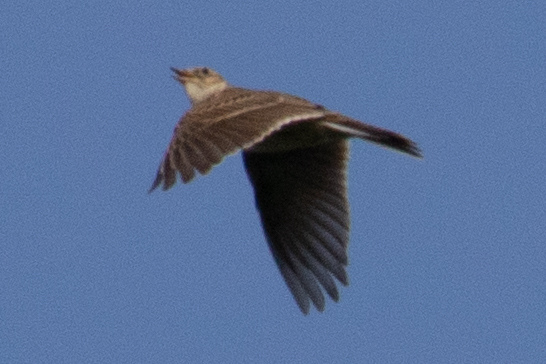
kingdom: Animalia
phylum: Chordata
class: Aves
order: Passeriformes
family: Alaudidae
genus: Alauda
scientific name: Alauda arvensis
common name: Eurasian skylark
